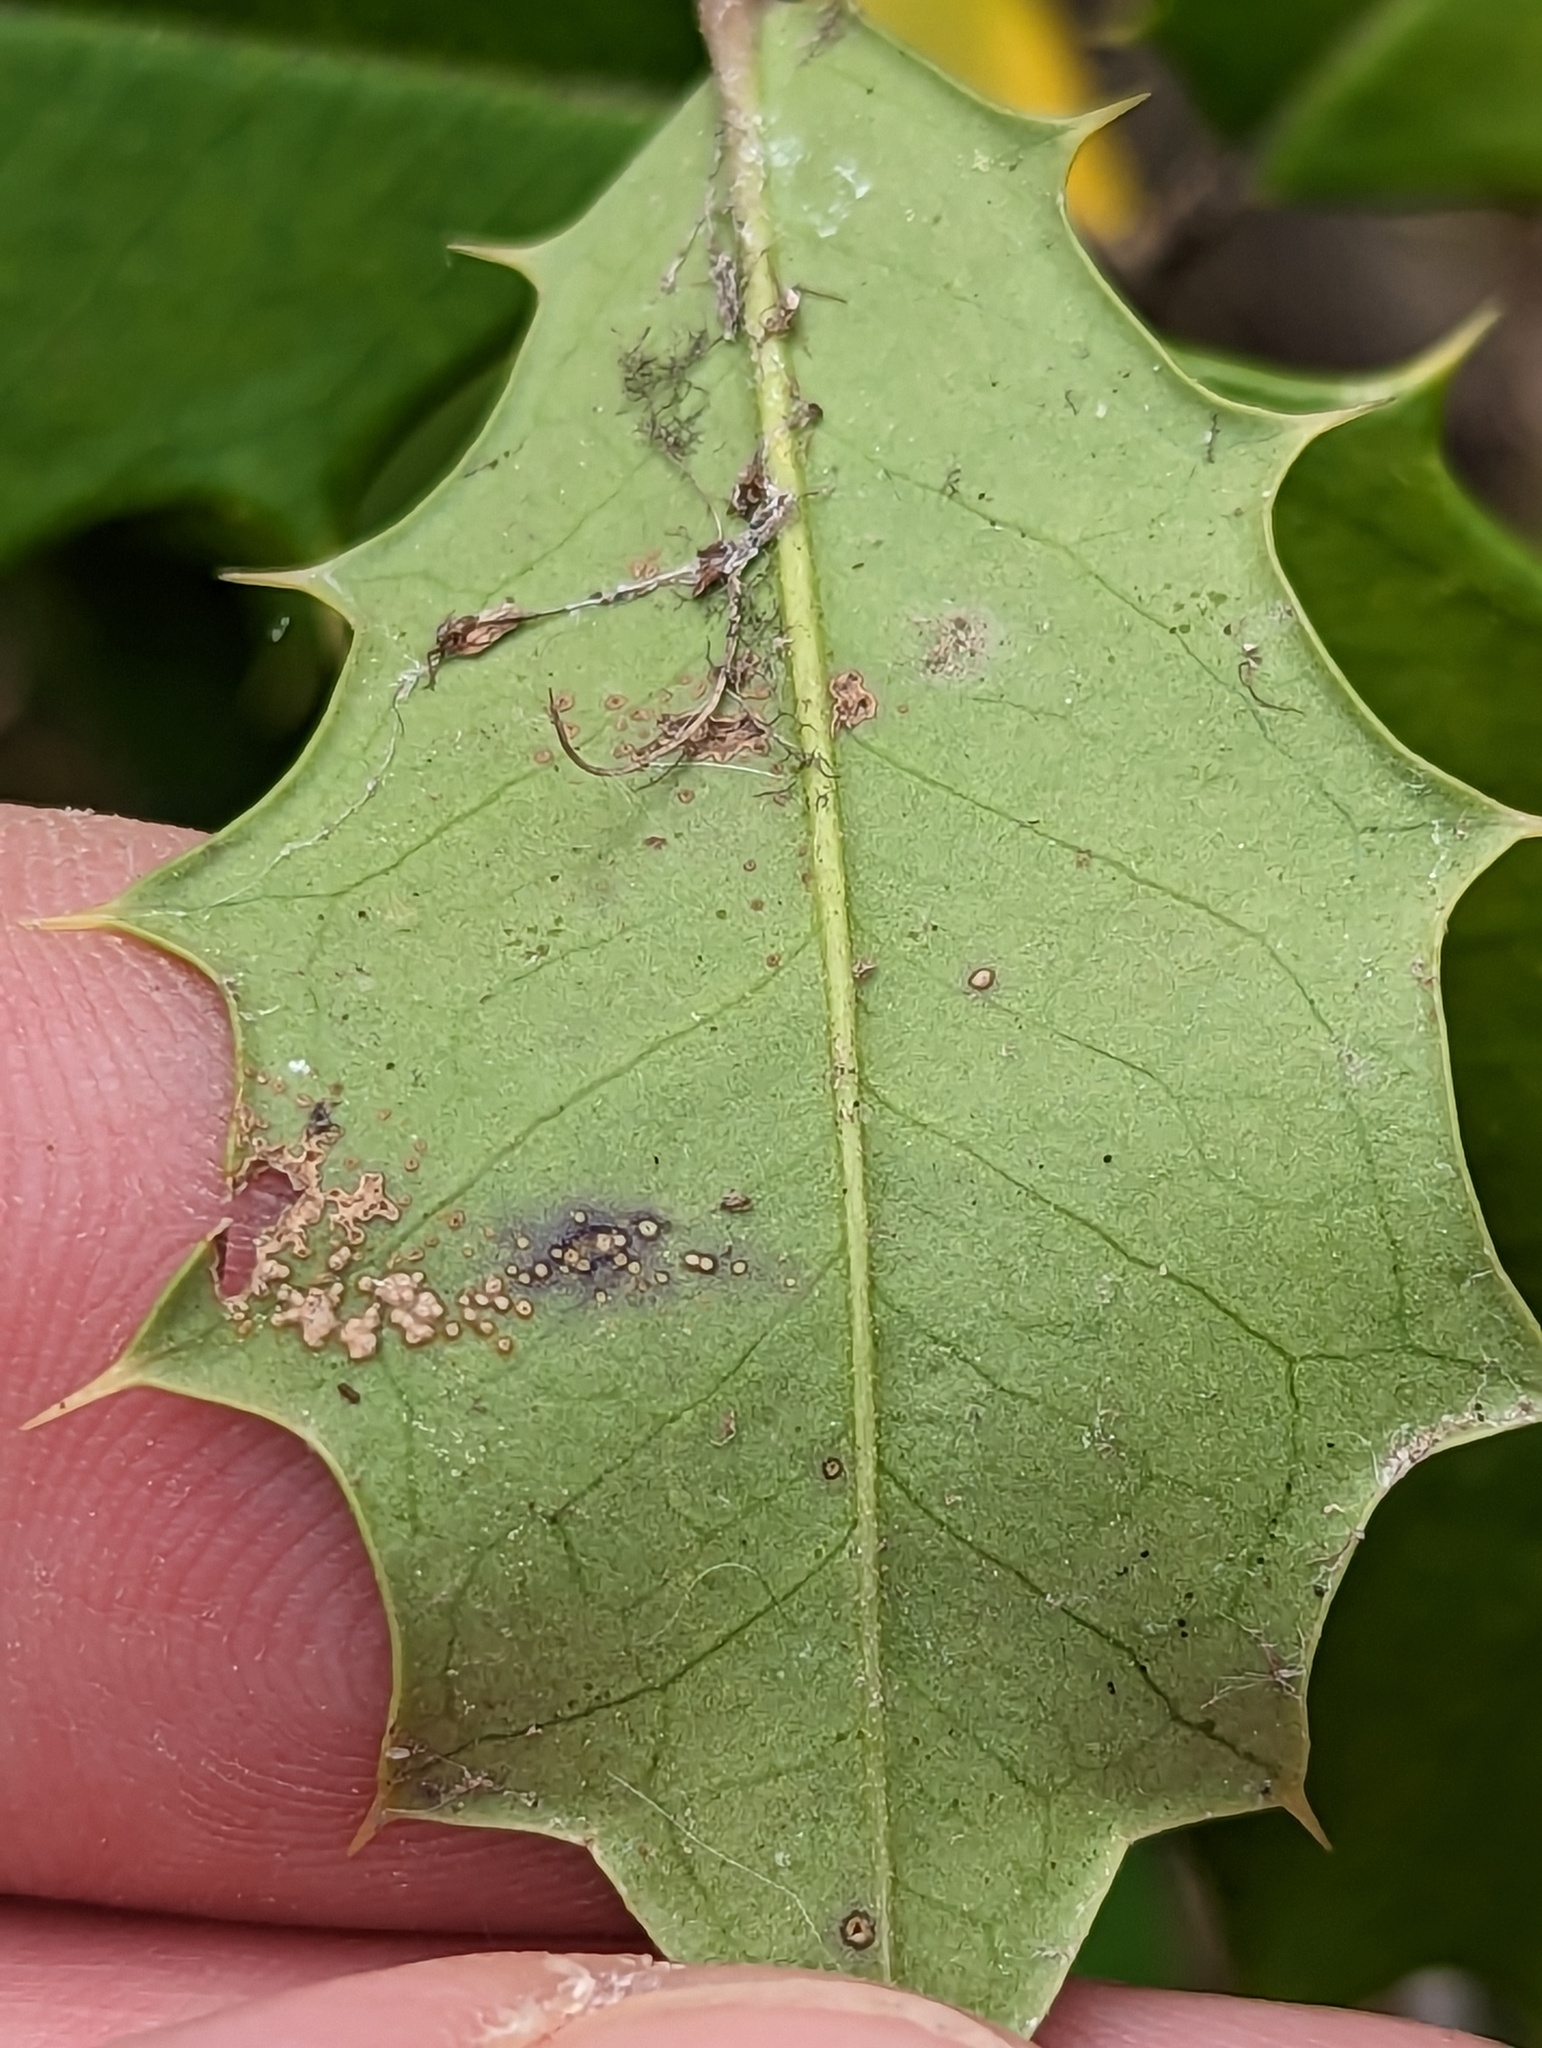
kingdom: Plantae
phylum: Tracheophyta
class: Magnoliopsida
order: Aquifoliales
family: Aquifoliaceae
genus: Ilex
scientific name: Ilex opaca
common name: American holly
